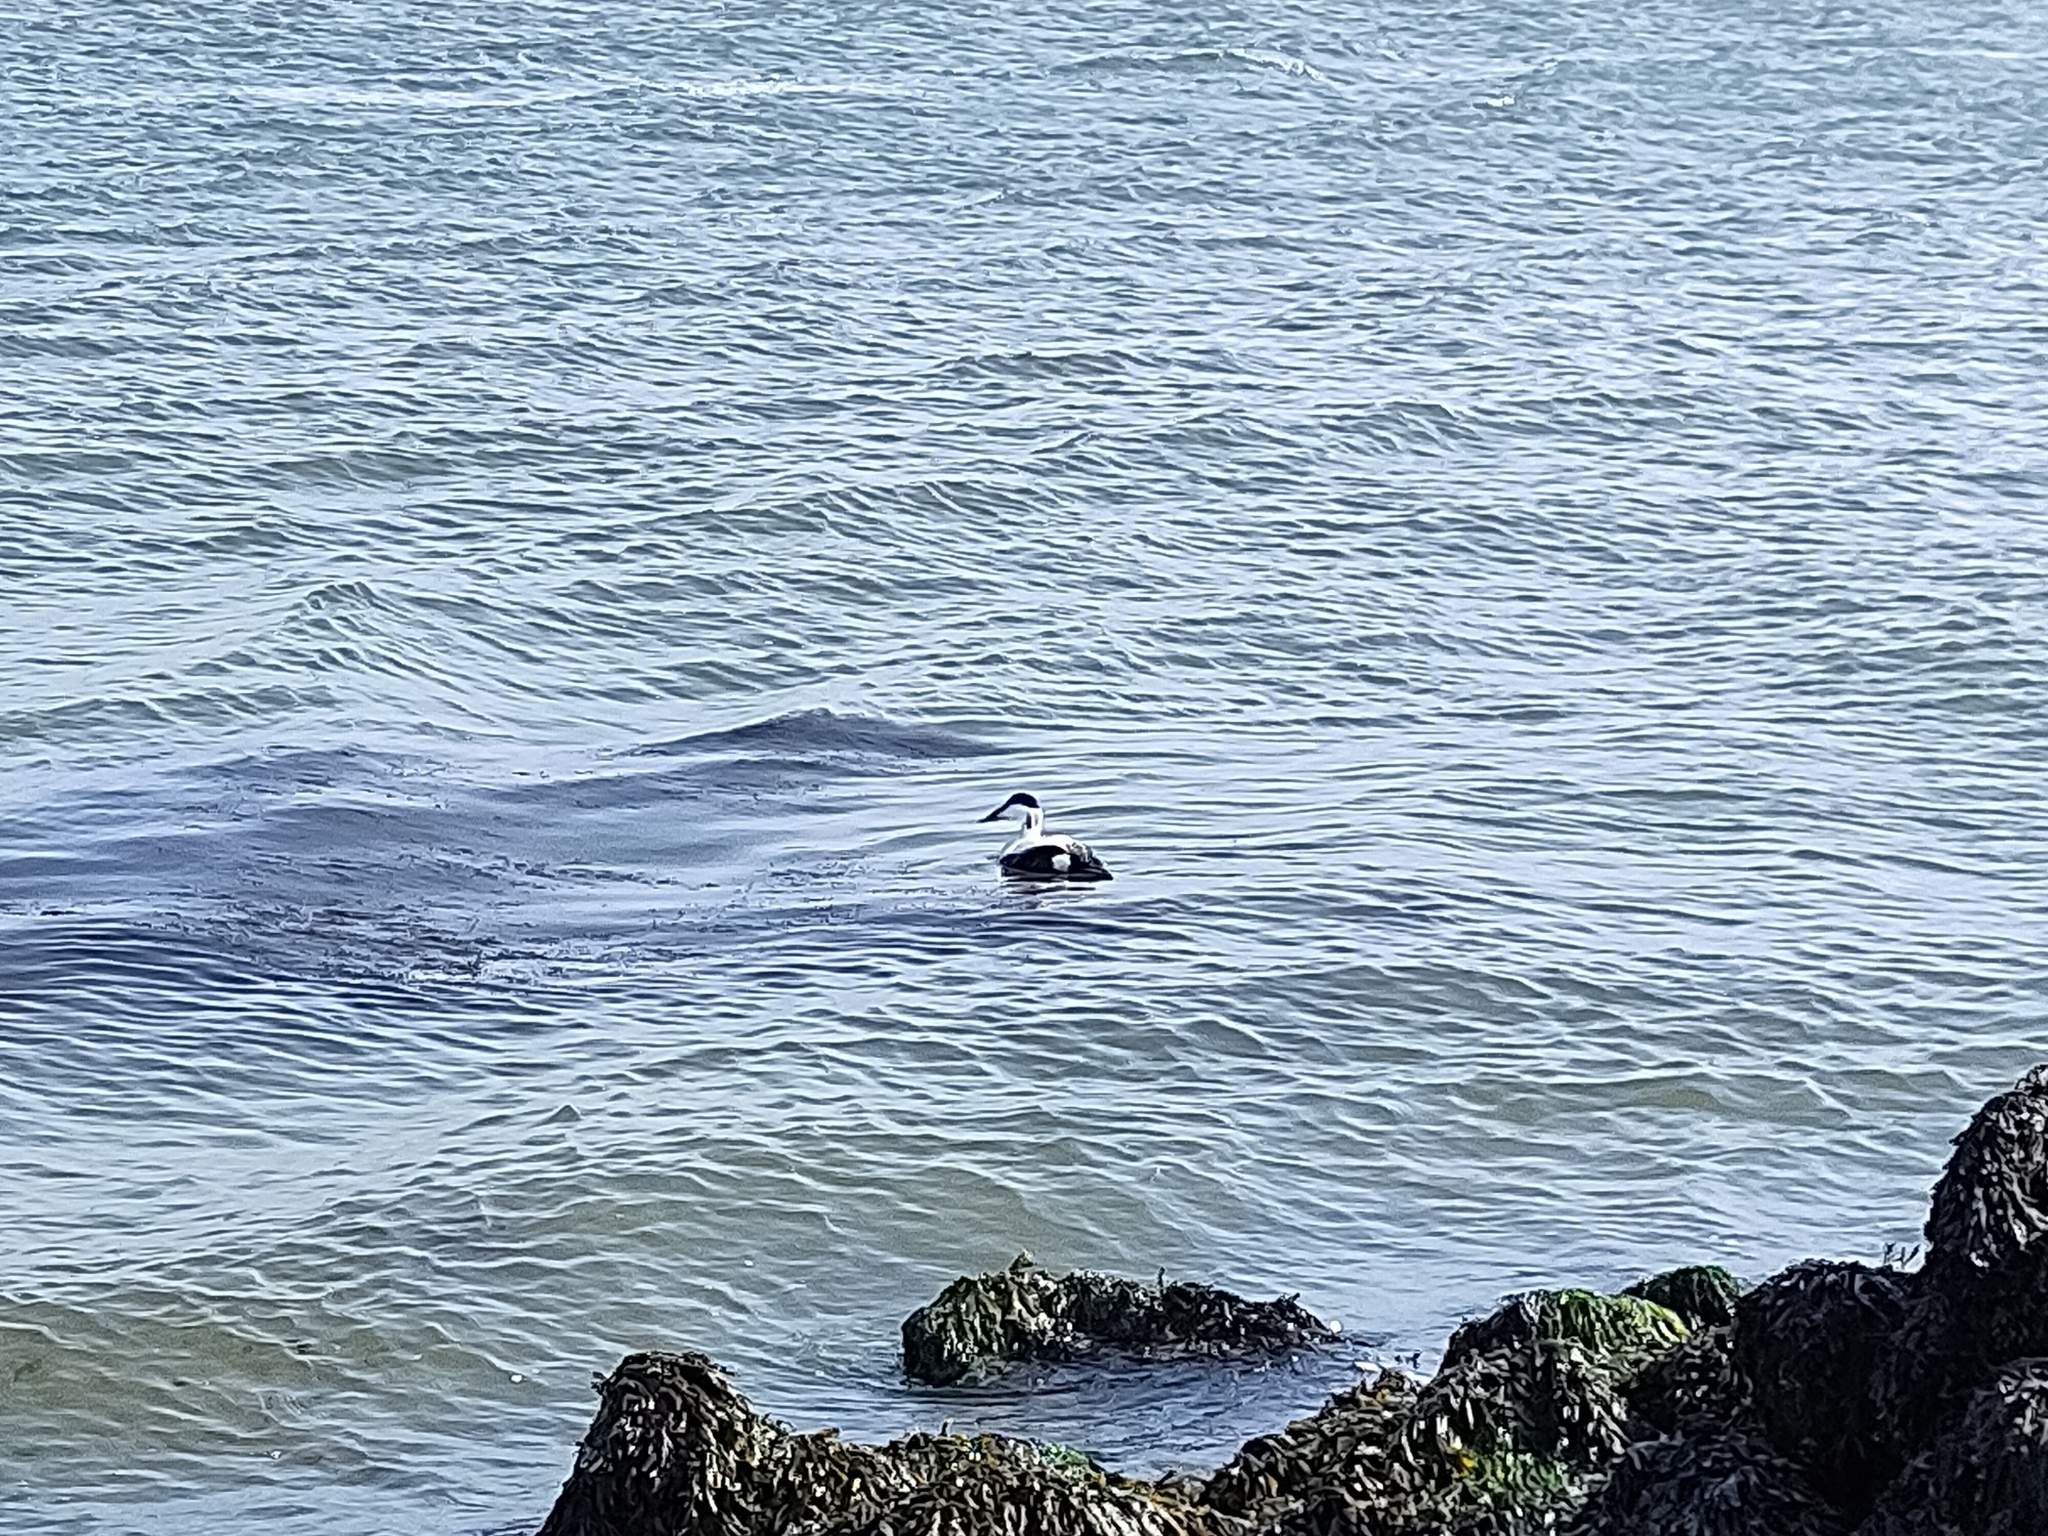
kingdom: Animalia
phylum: Chordata
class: Aves
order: Anseriformes
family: Anatidae
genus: Somateria
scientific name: Somateria mollissima
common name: Common eider
